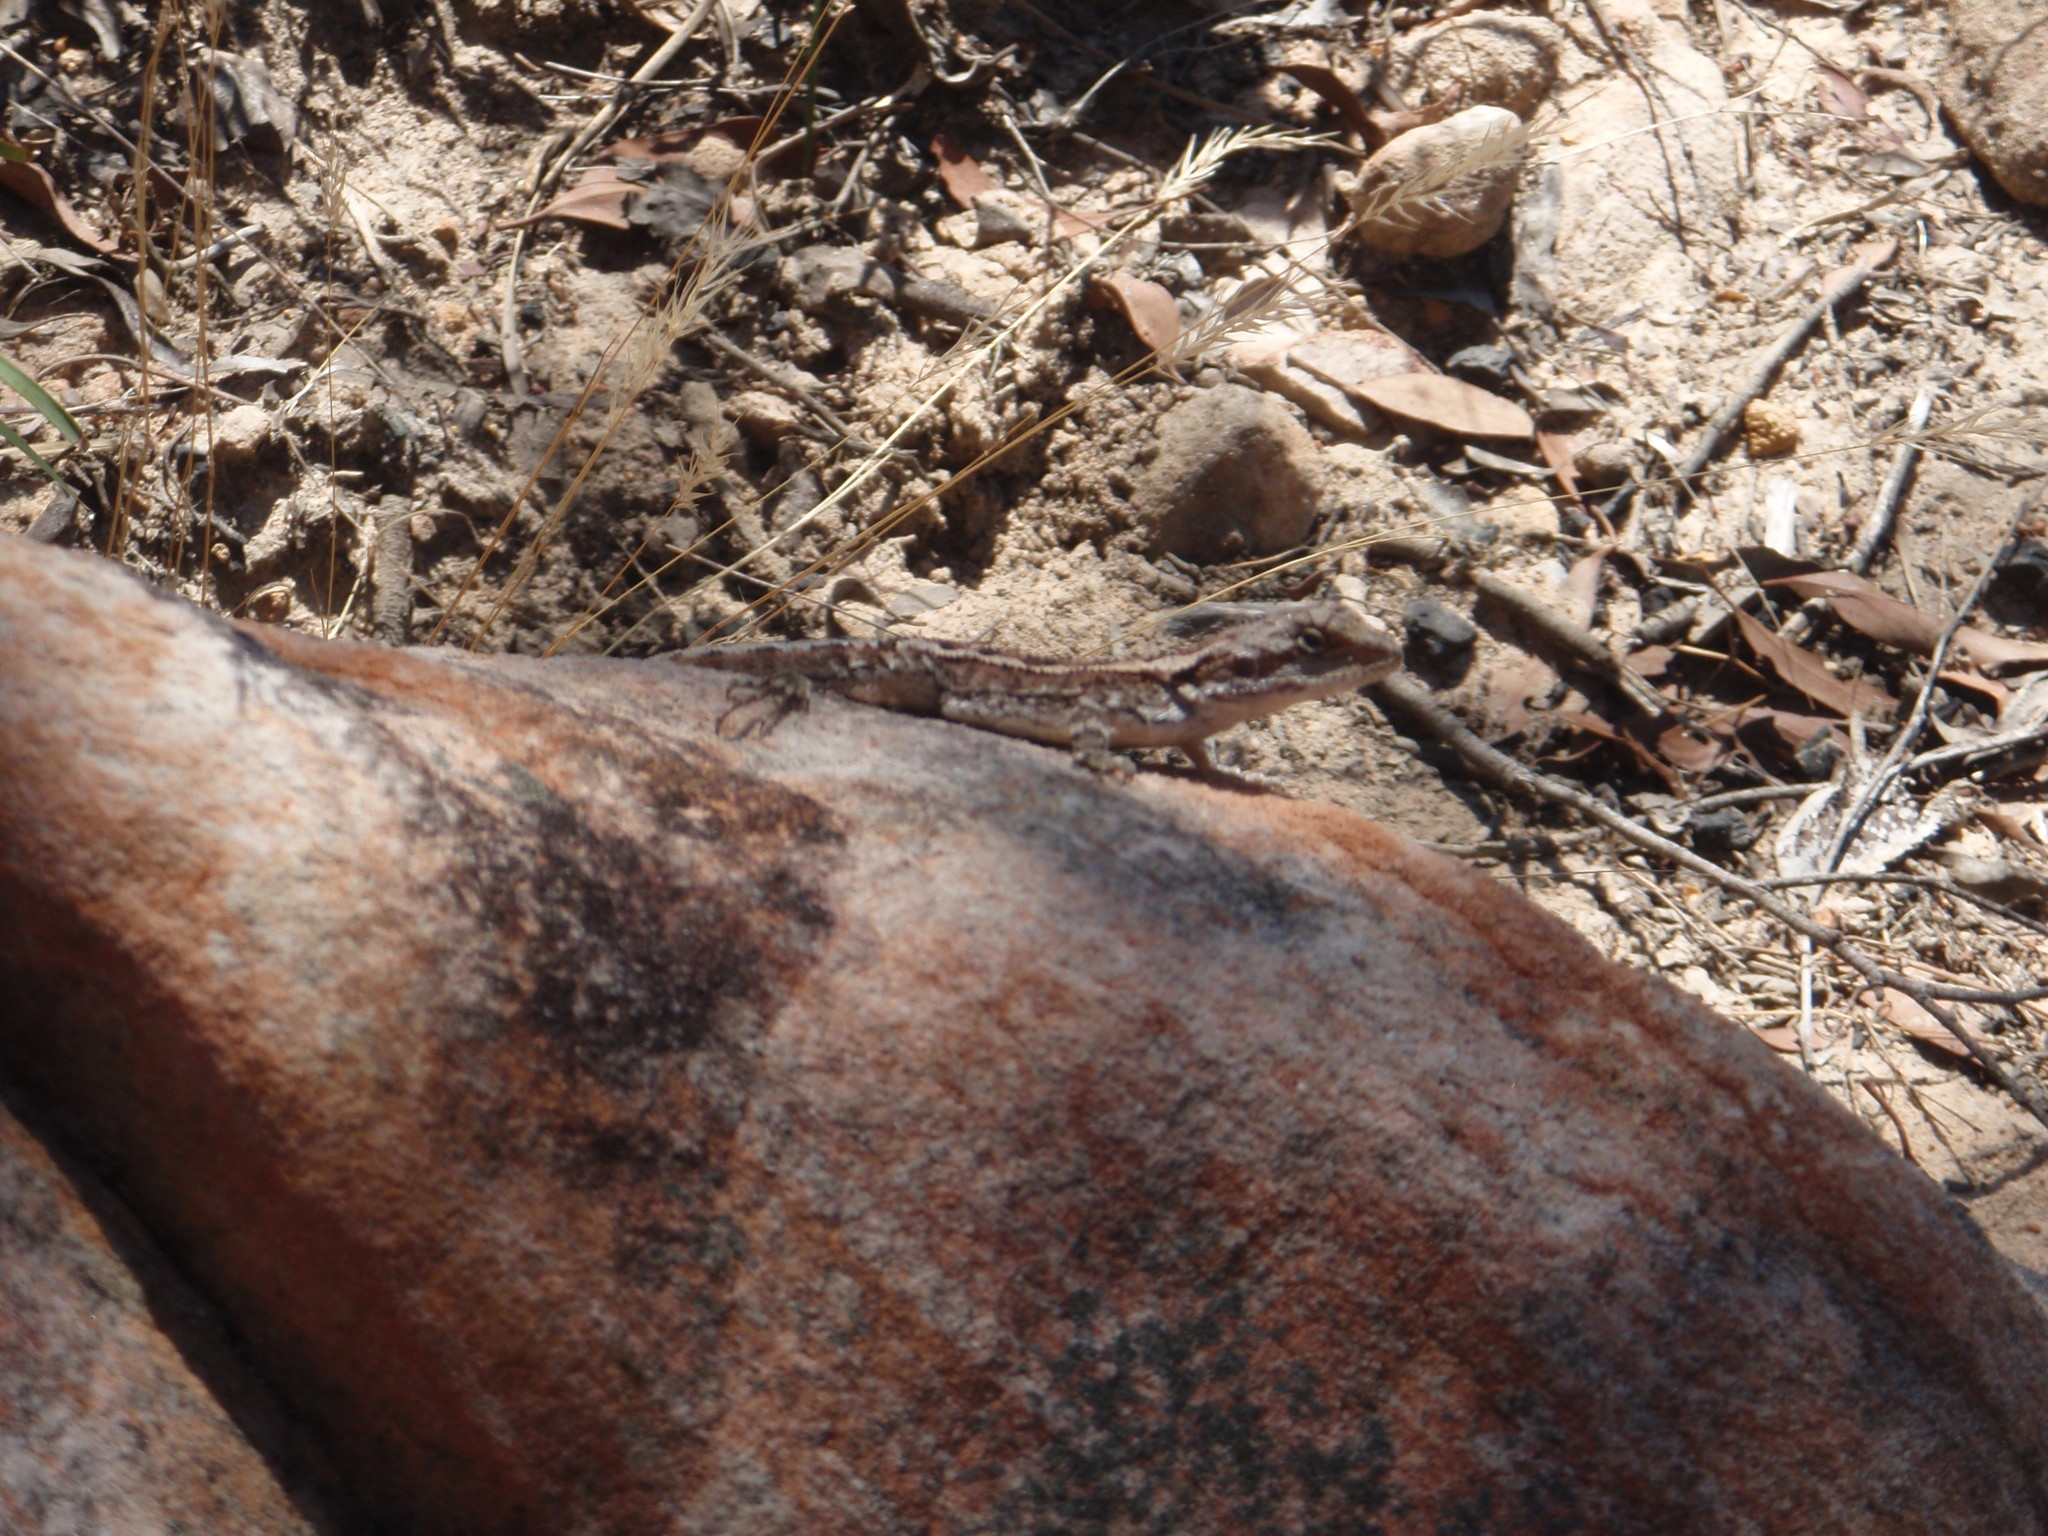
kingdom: Animalia
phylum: Chordata
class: Squamata
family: Agamidae
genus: Amphibolurus
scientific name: Amphibolurus muricatus
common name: Jacky lizard
